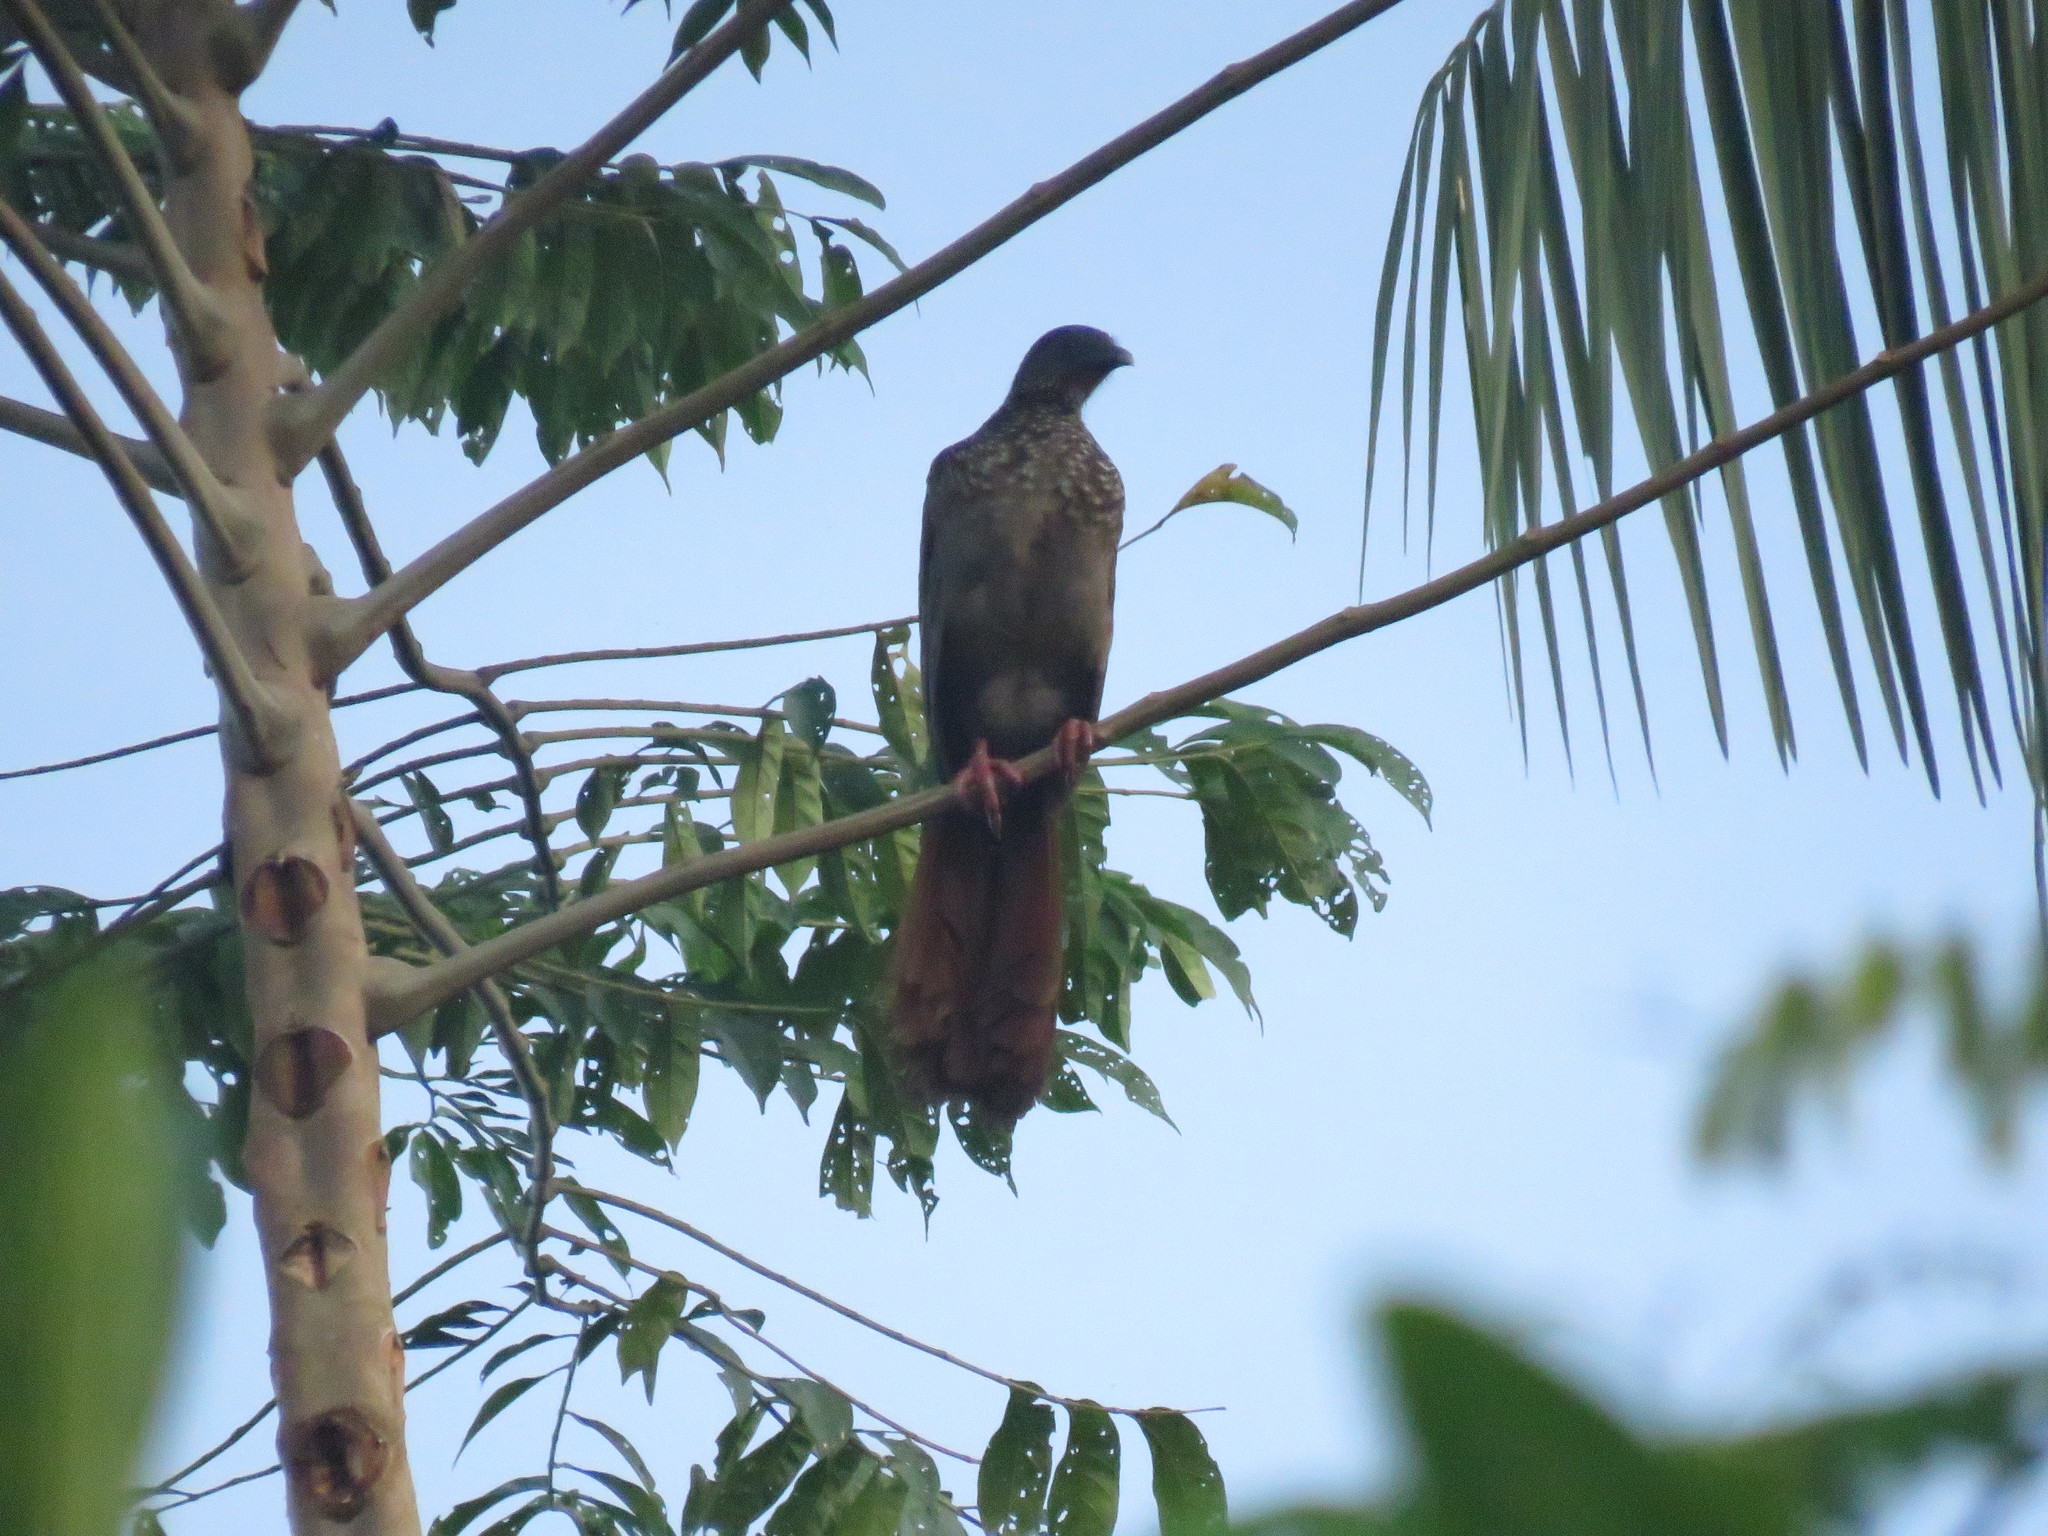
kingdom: Animalia
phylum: Chordata
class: Aves
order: Galliformes
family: Cracidae
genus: Ortalis
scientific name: Ortalis guttata
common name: Speckled chachalaca
